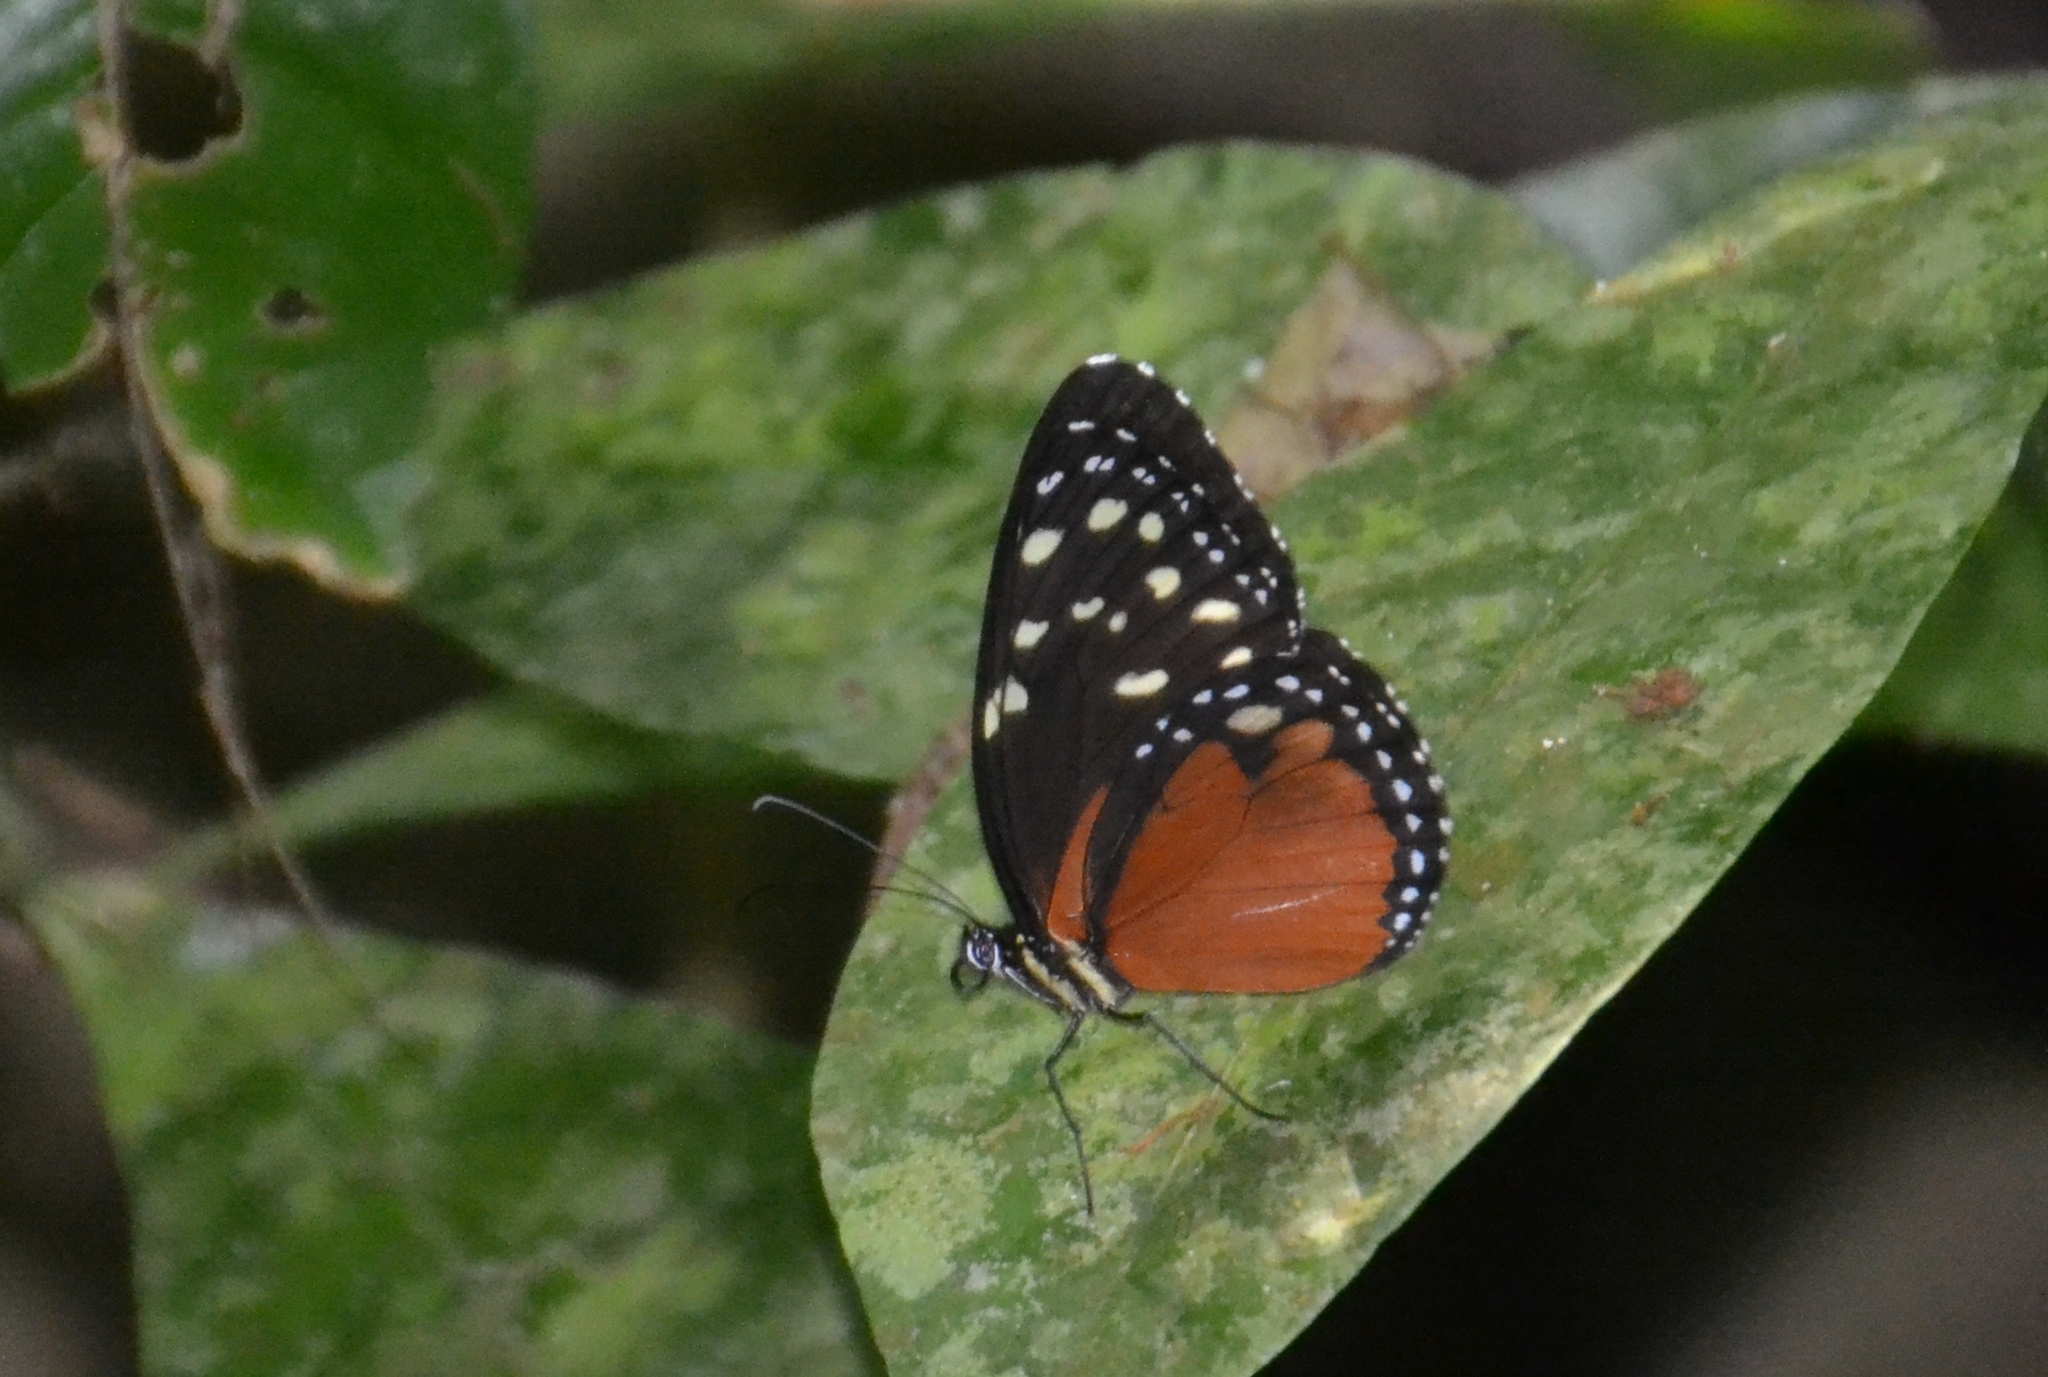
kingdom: Animalia
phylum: Arthropoda
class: Insecta
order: Lepidoptera
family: Nymphalidae
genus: Tithorea
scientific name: Tithorea tarricina
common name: Cream-spotted tigerwing
